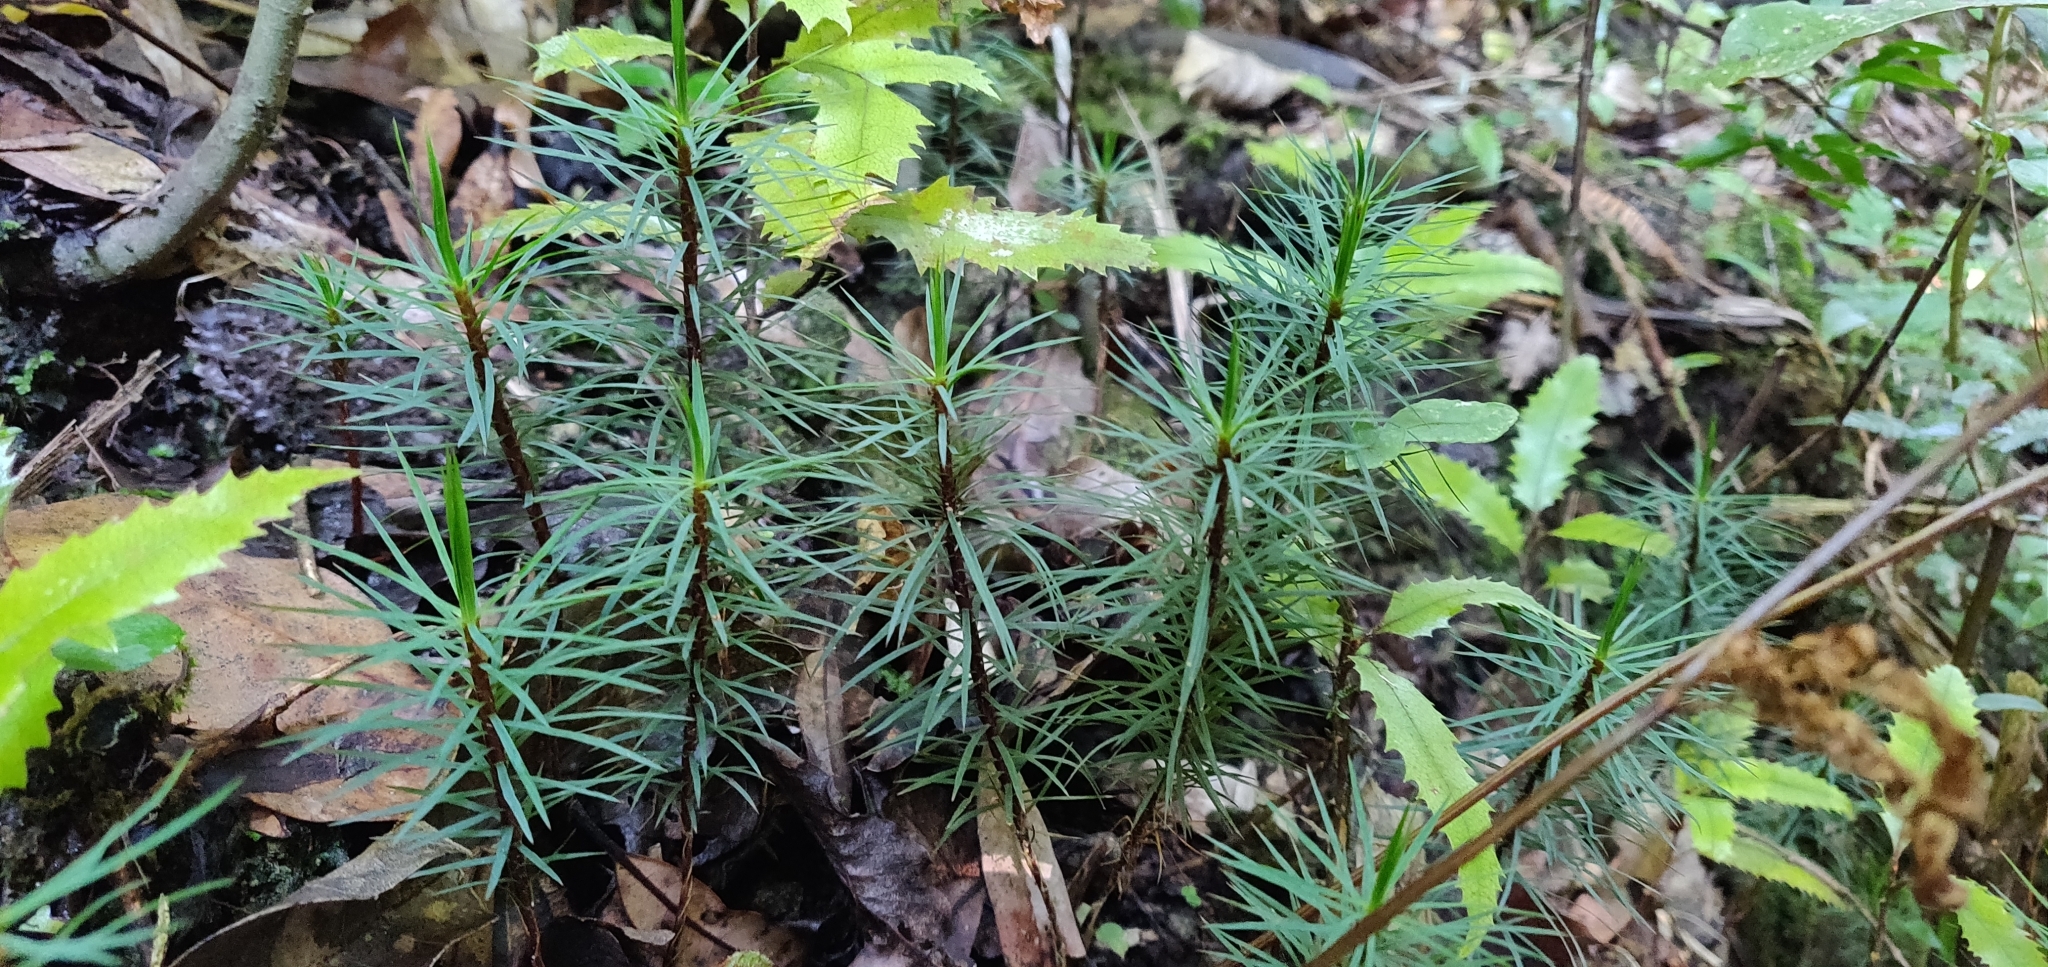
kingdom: Plantae
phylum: Bryophyta
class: Polytrichopsida
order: Polytrichales
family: Polytrichaceae
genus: Dawsonia
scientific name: Dawsonia superba
